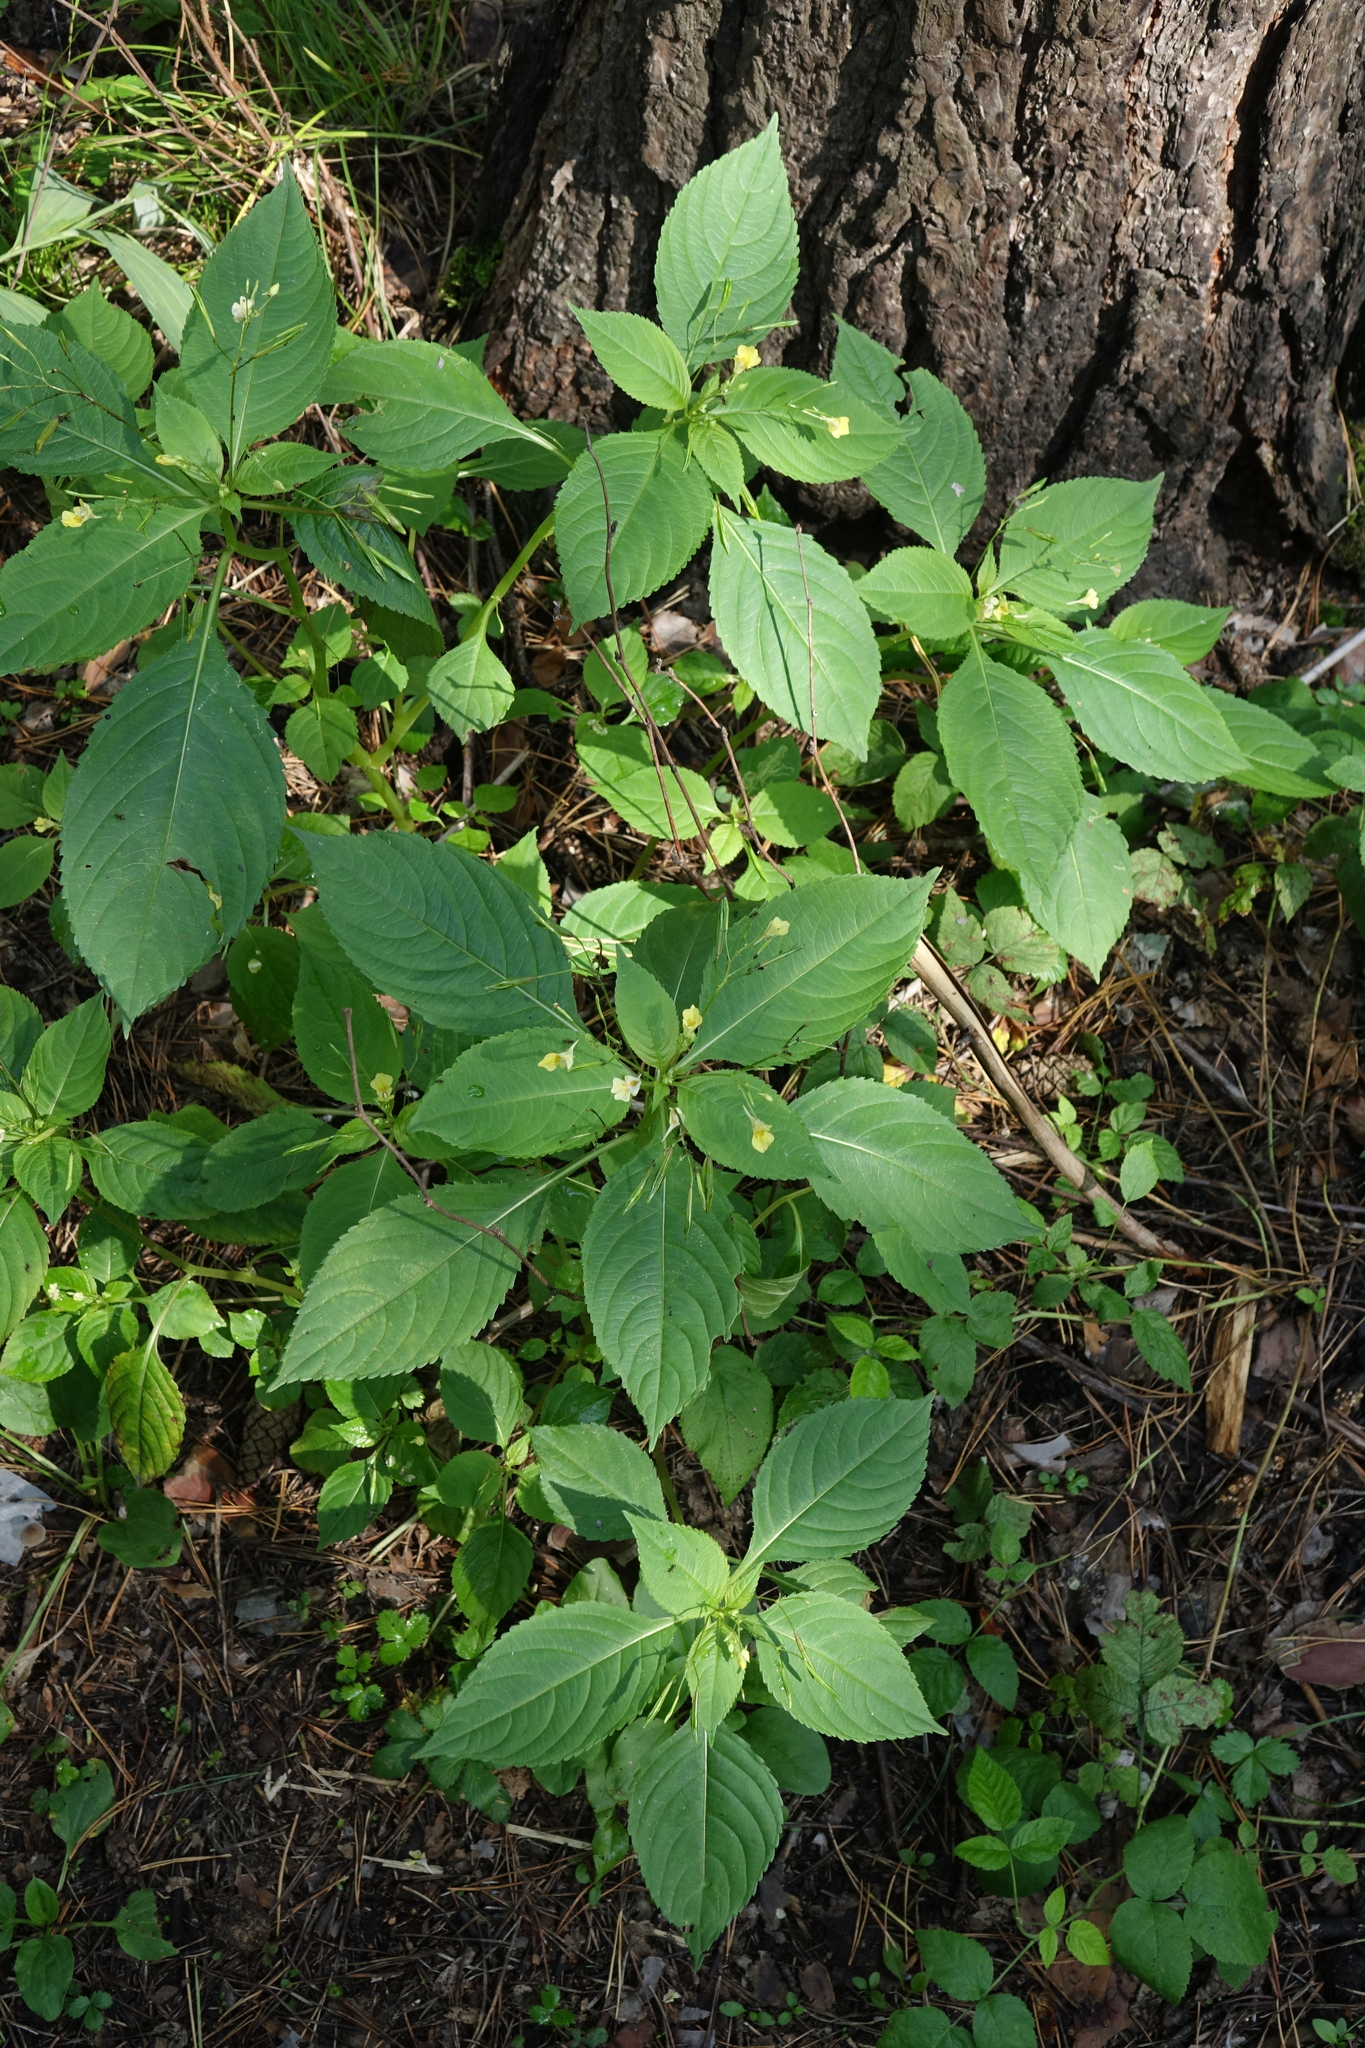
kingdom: Plantae
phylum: Tracheophyta
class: Magnoliopsida
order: Ericales
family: Balsaminaceae
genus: Impatiens
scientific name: Impatiens parviflora
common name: Small balsam
